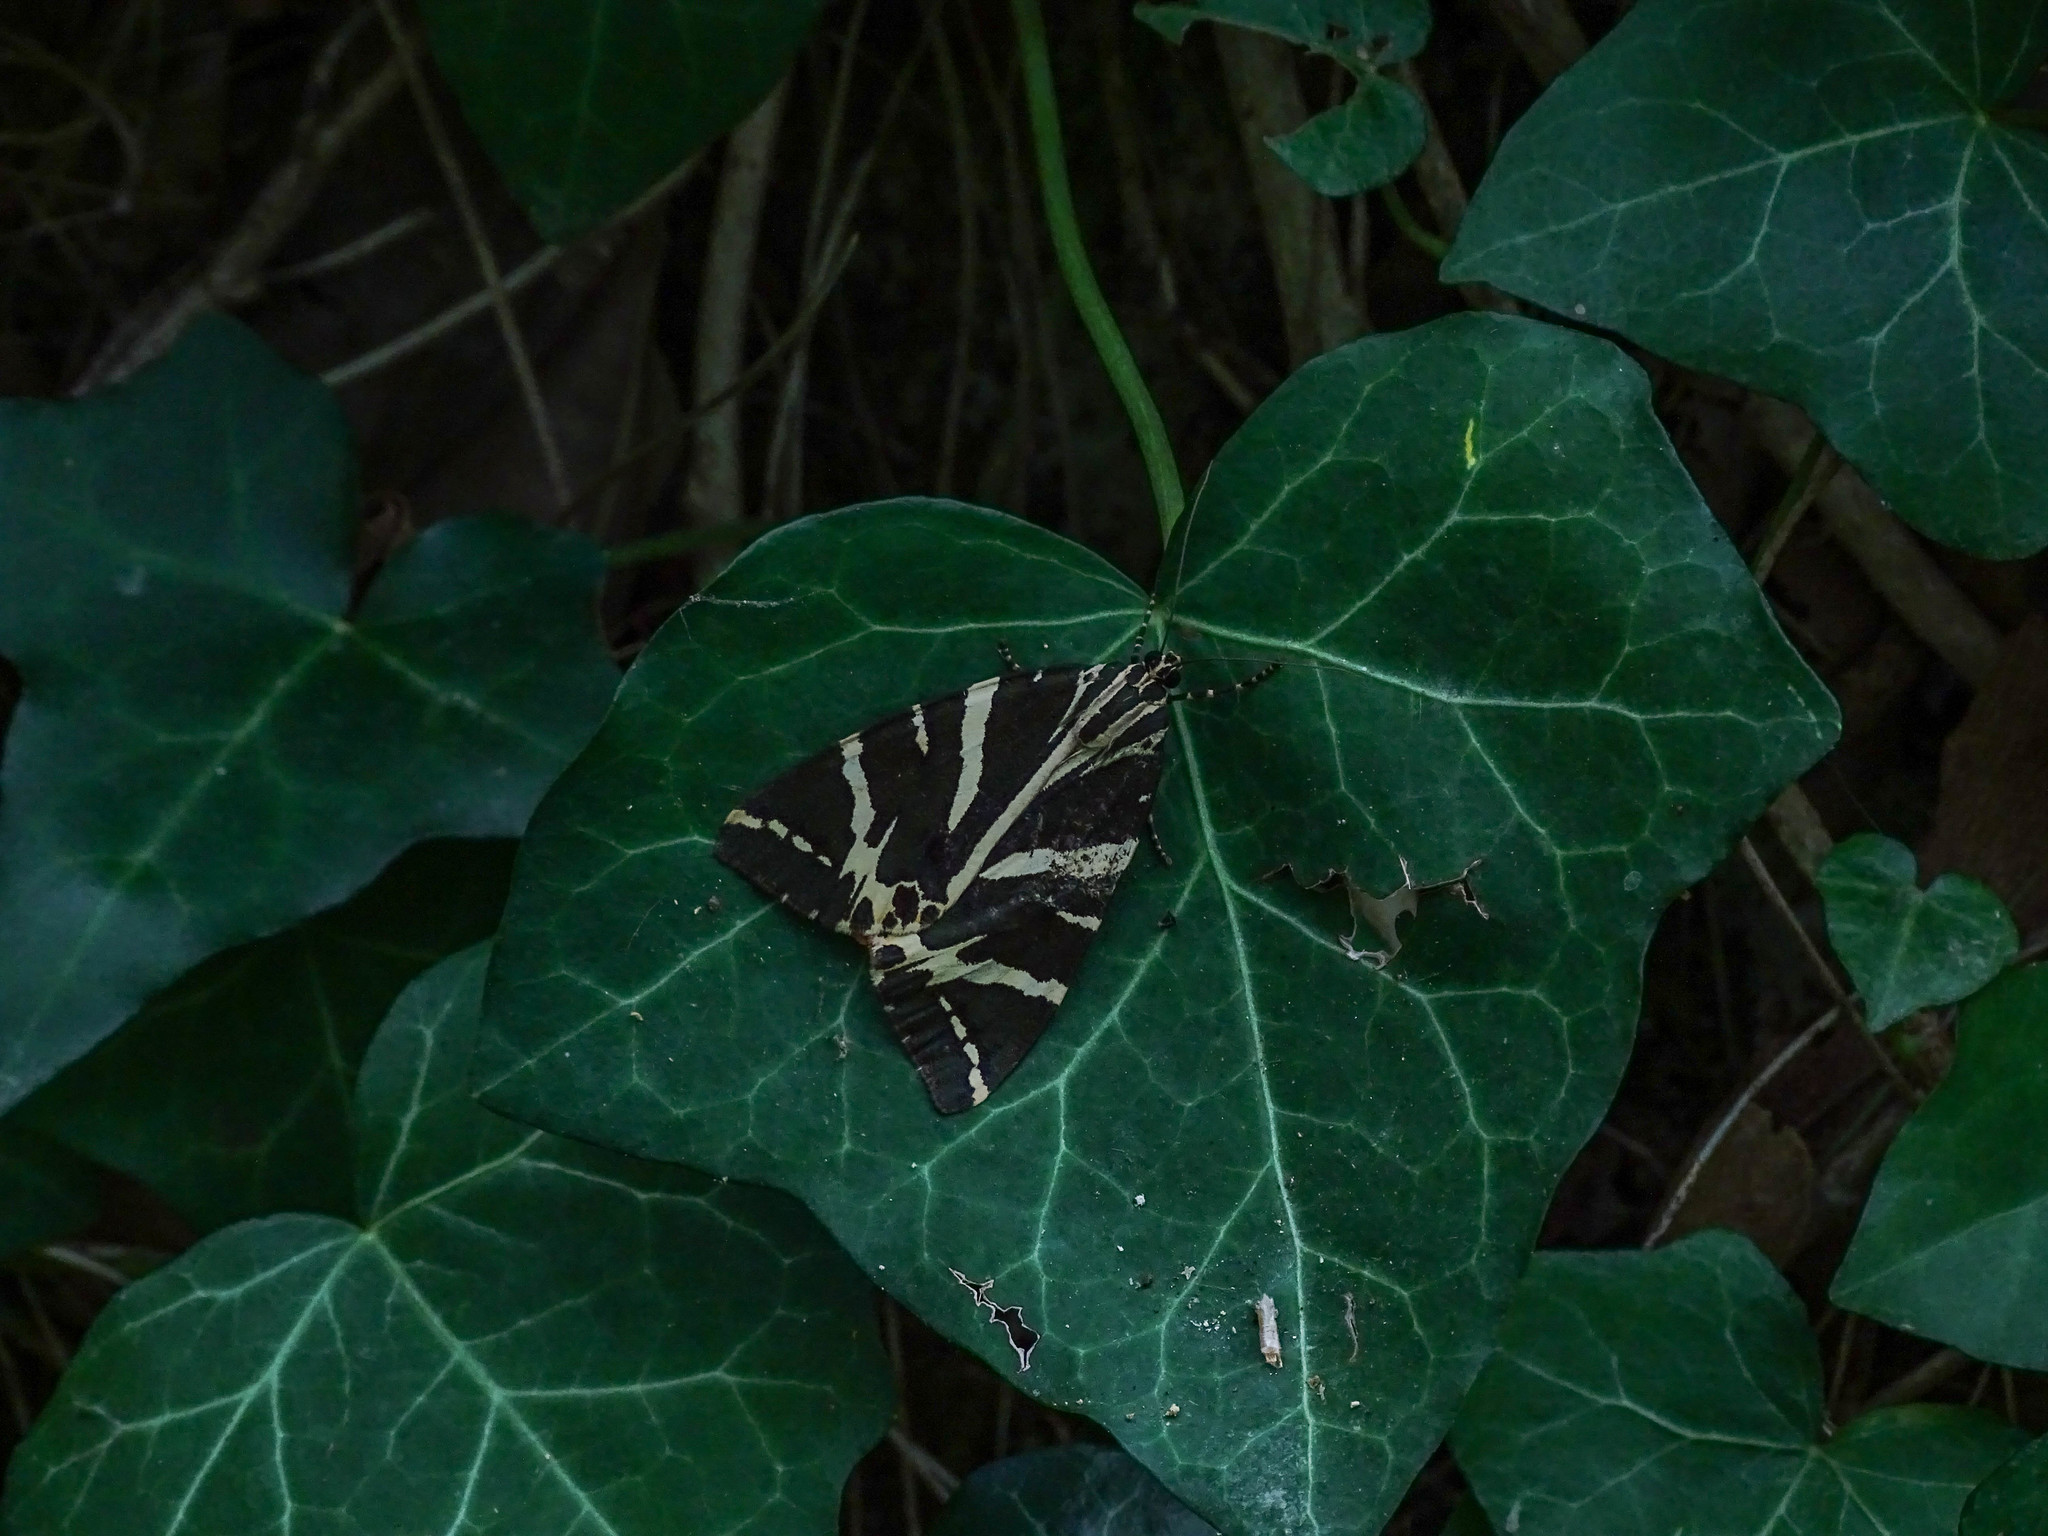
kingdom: Animalia
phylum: Arthropoda
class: Insecta
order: Lepidoptera
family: Erebidae
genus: Euplagia
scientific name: Euplagia quadripunctaria
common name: Jersey tiger
